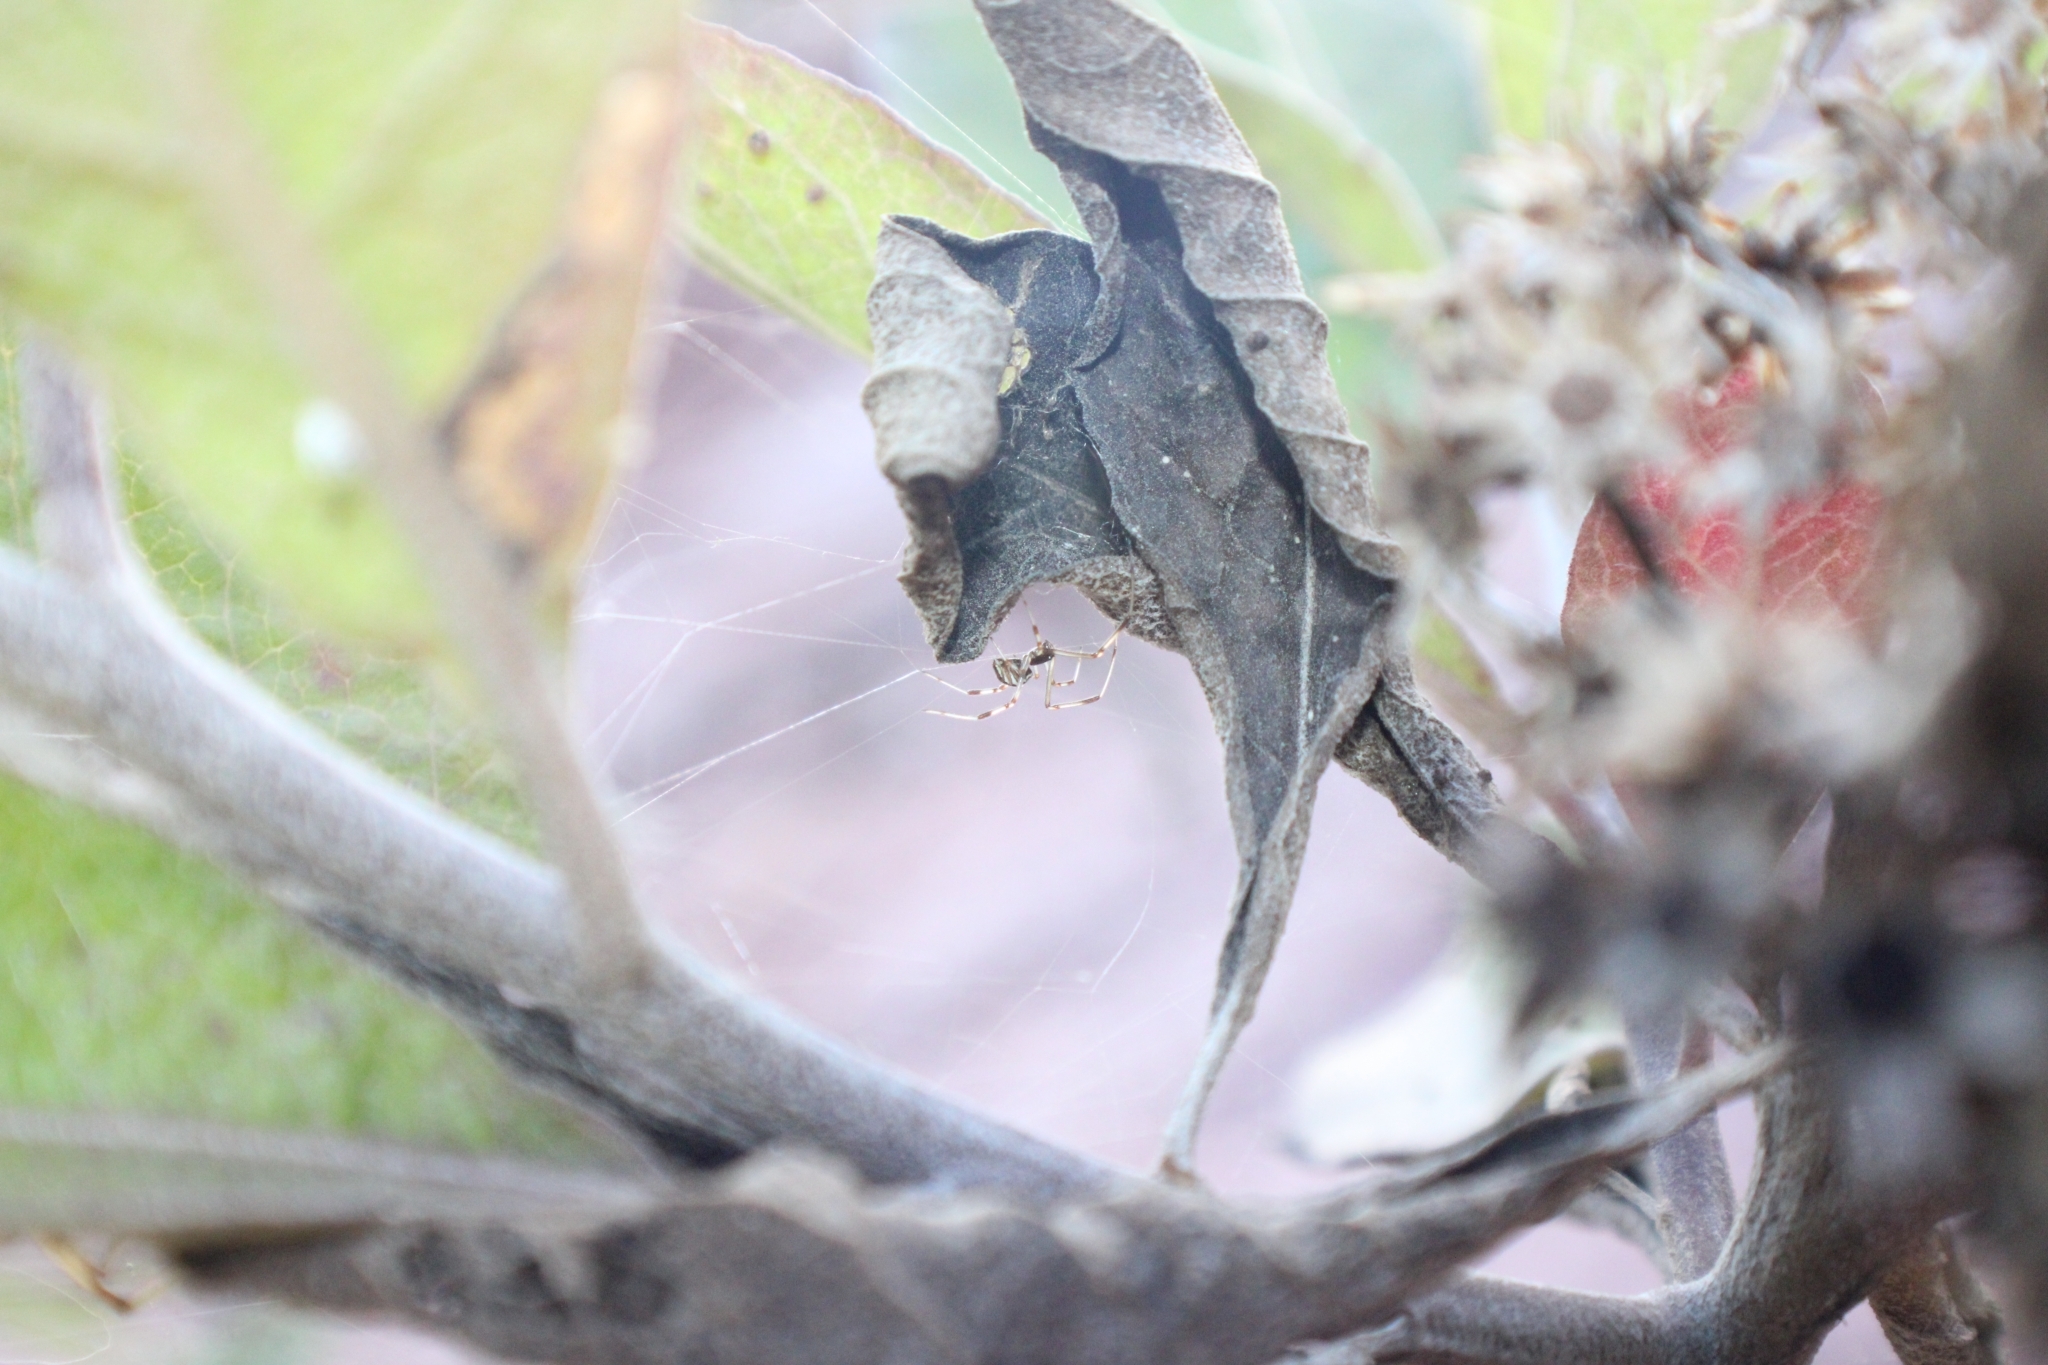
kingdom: Animalia
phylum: Arthropoda
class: Arachnida
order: Araneae
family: Theridiidae
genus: Latrodectus
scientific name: Latrodectus geometricus
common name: Brown widow spider
